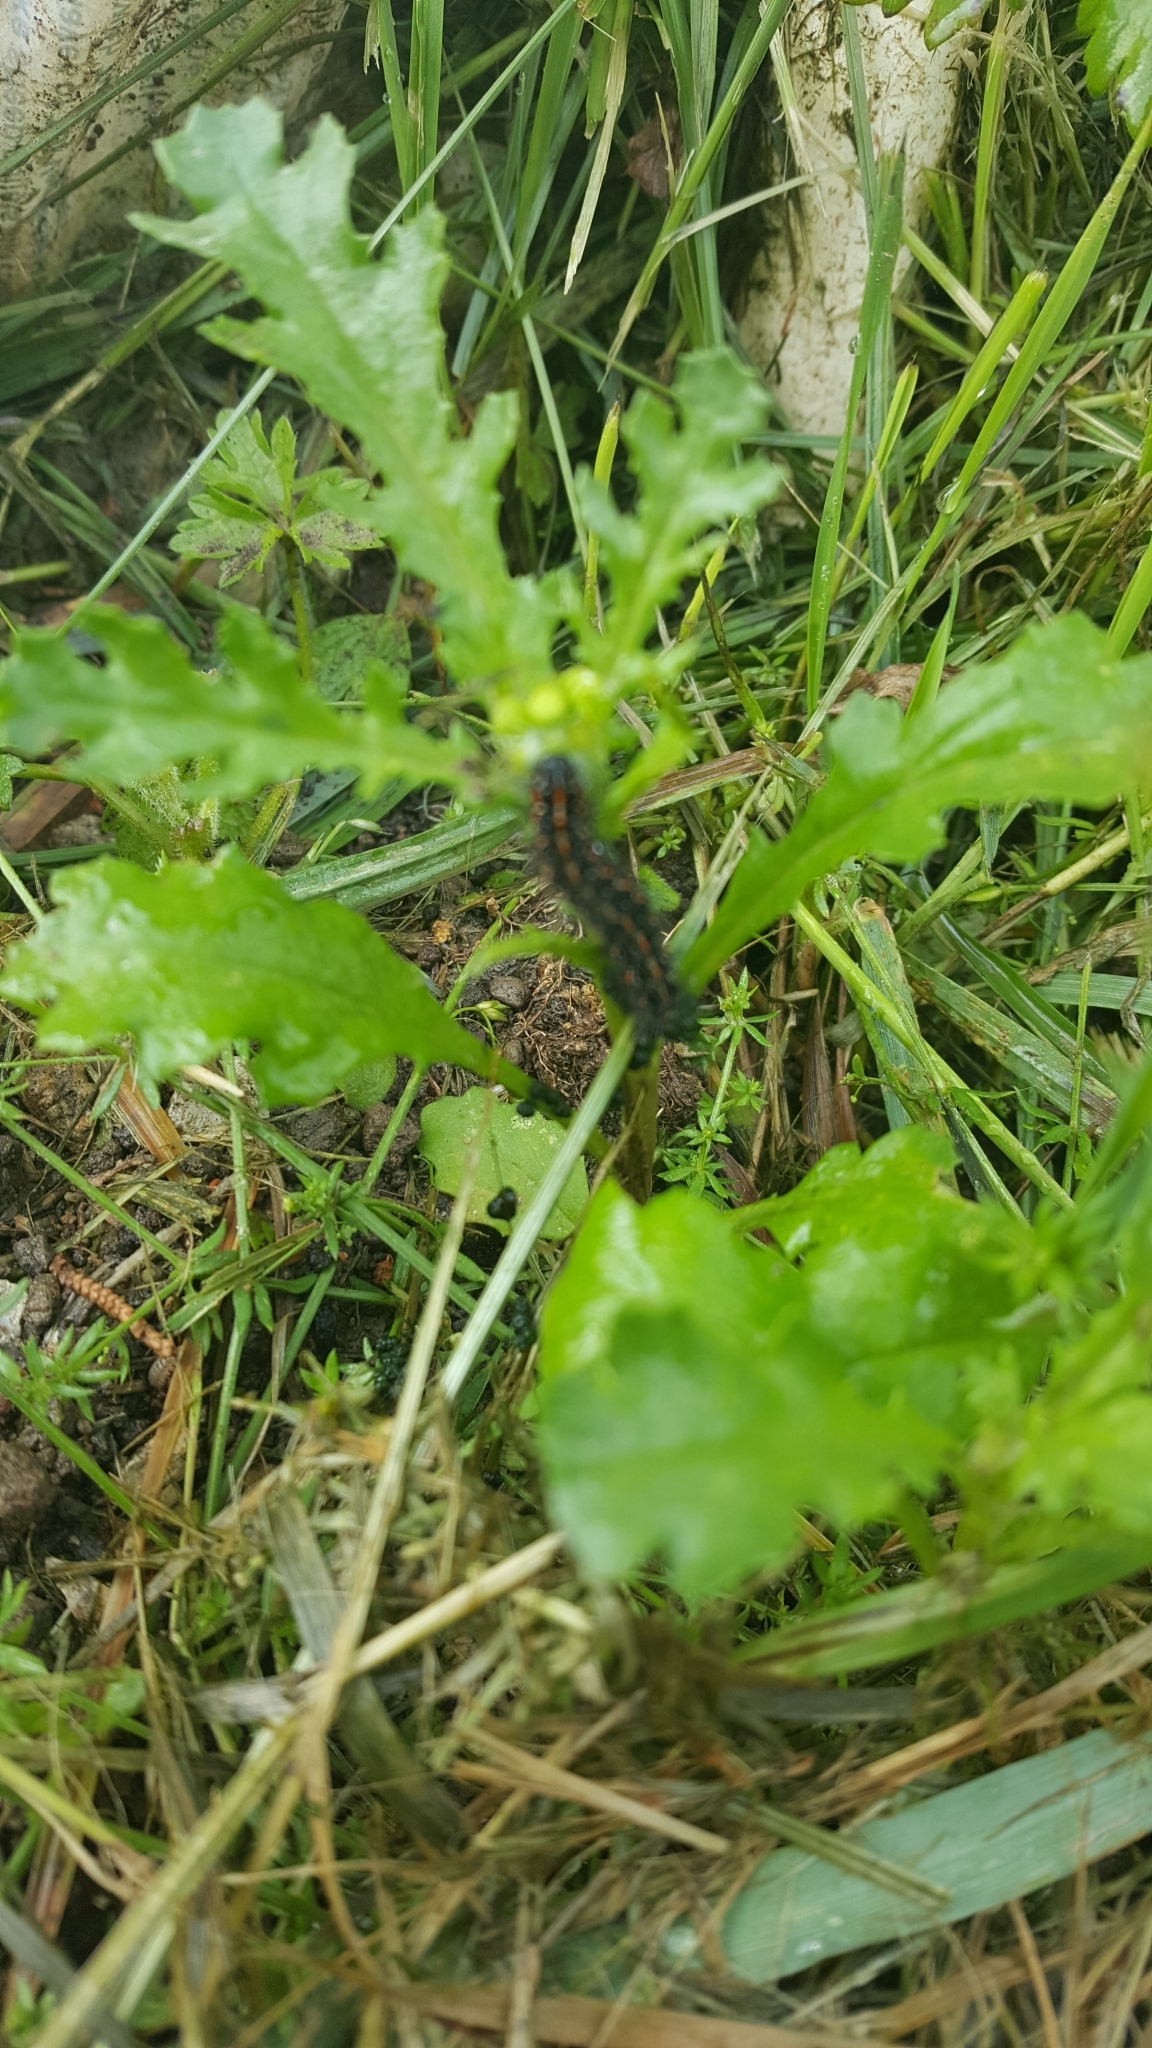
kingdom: Animalia
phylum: Arthropoda
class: Insecta
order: Lepidoptera
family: Erebidae
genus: Nyctemera
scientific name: Nyctemera annulatum
